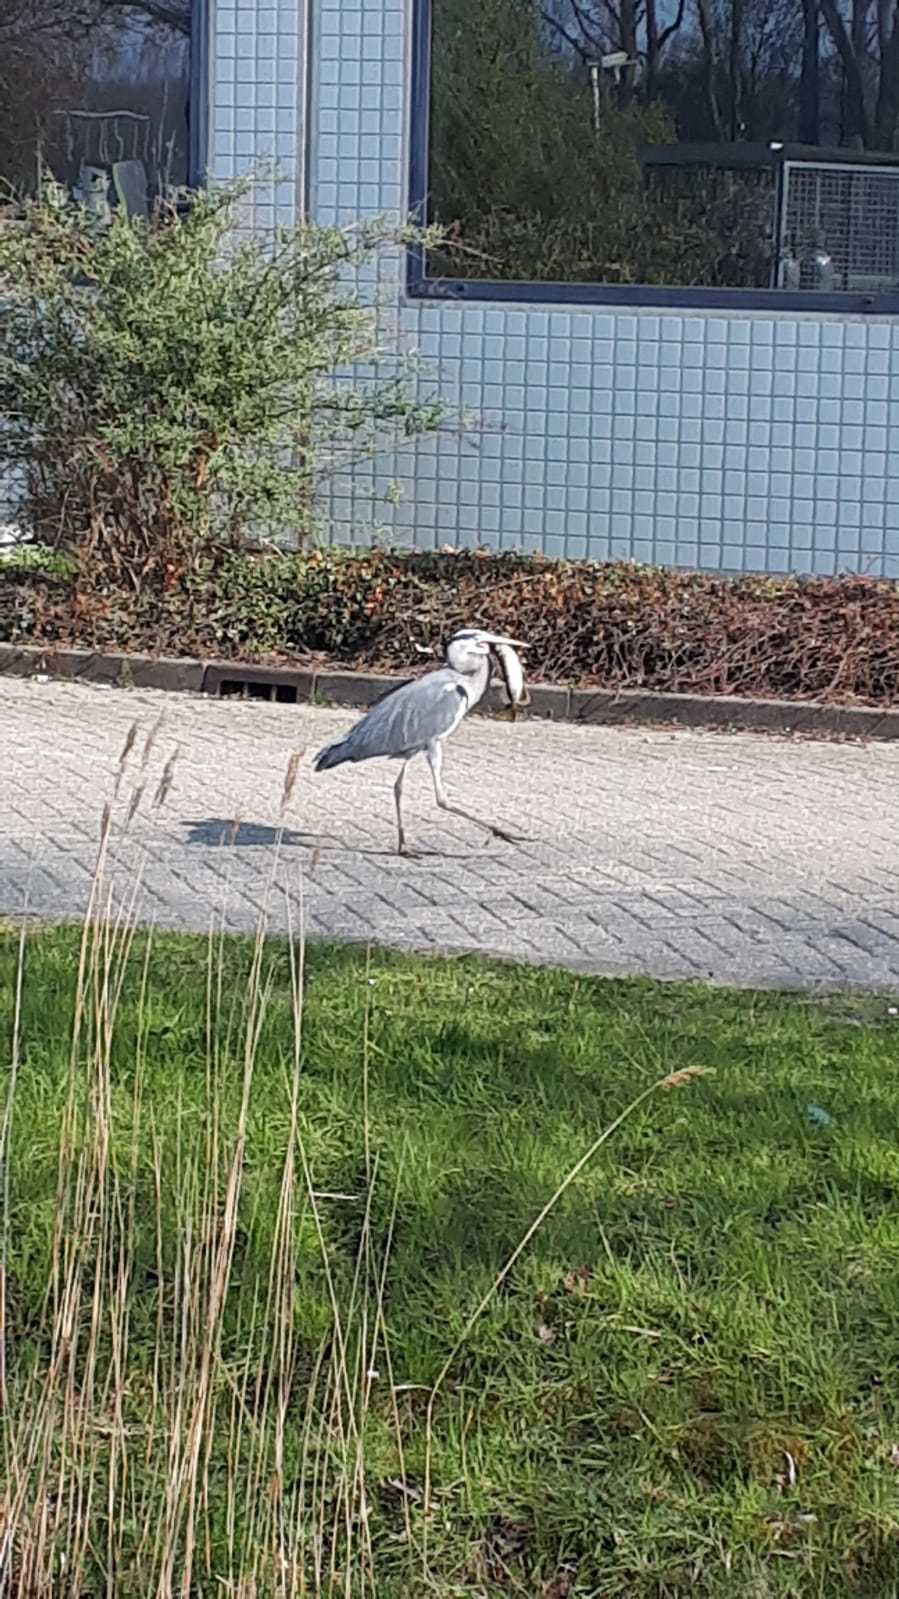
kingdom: Animalia
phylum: Chordata
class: Aves
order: Pelecaniformes
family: Ardeidae
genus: Ardea
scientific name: Ardea cinerea
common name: Grey heron
